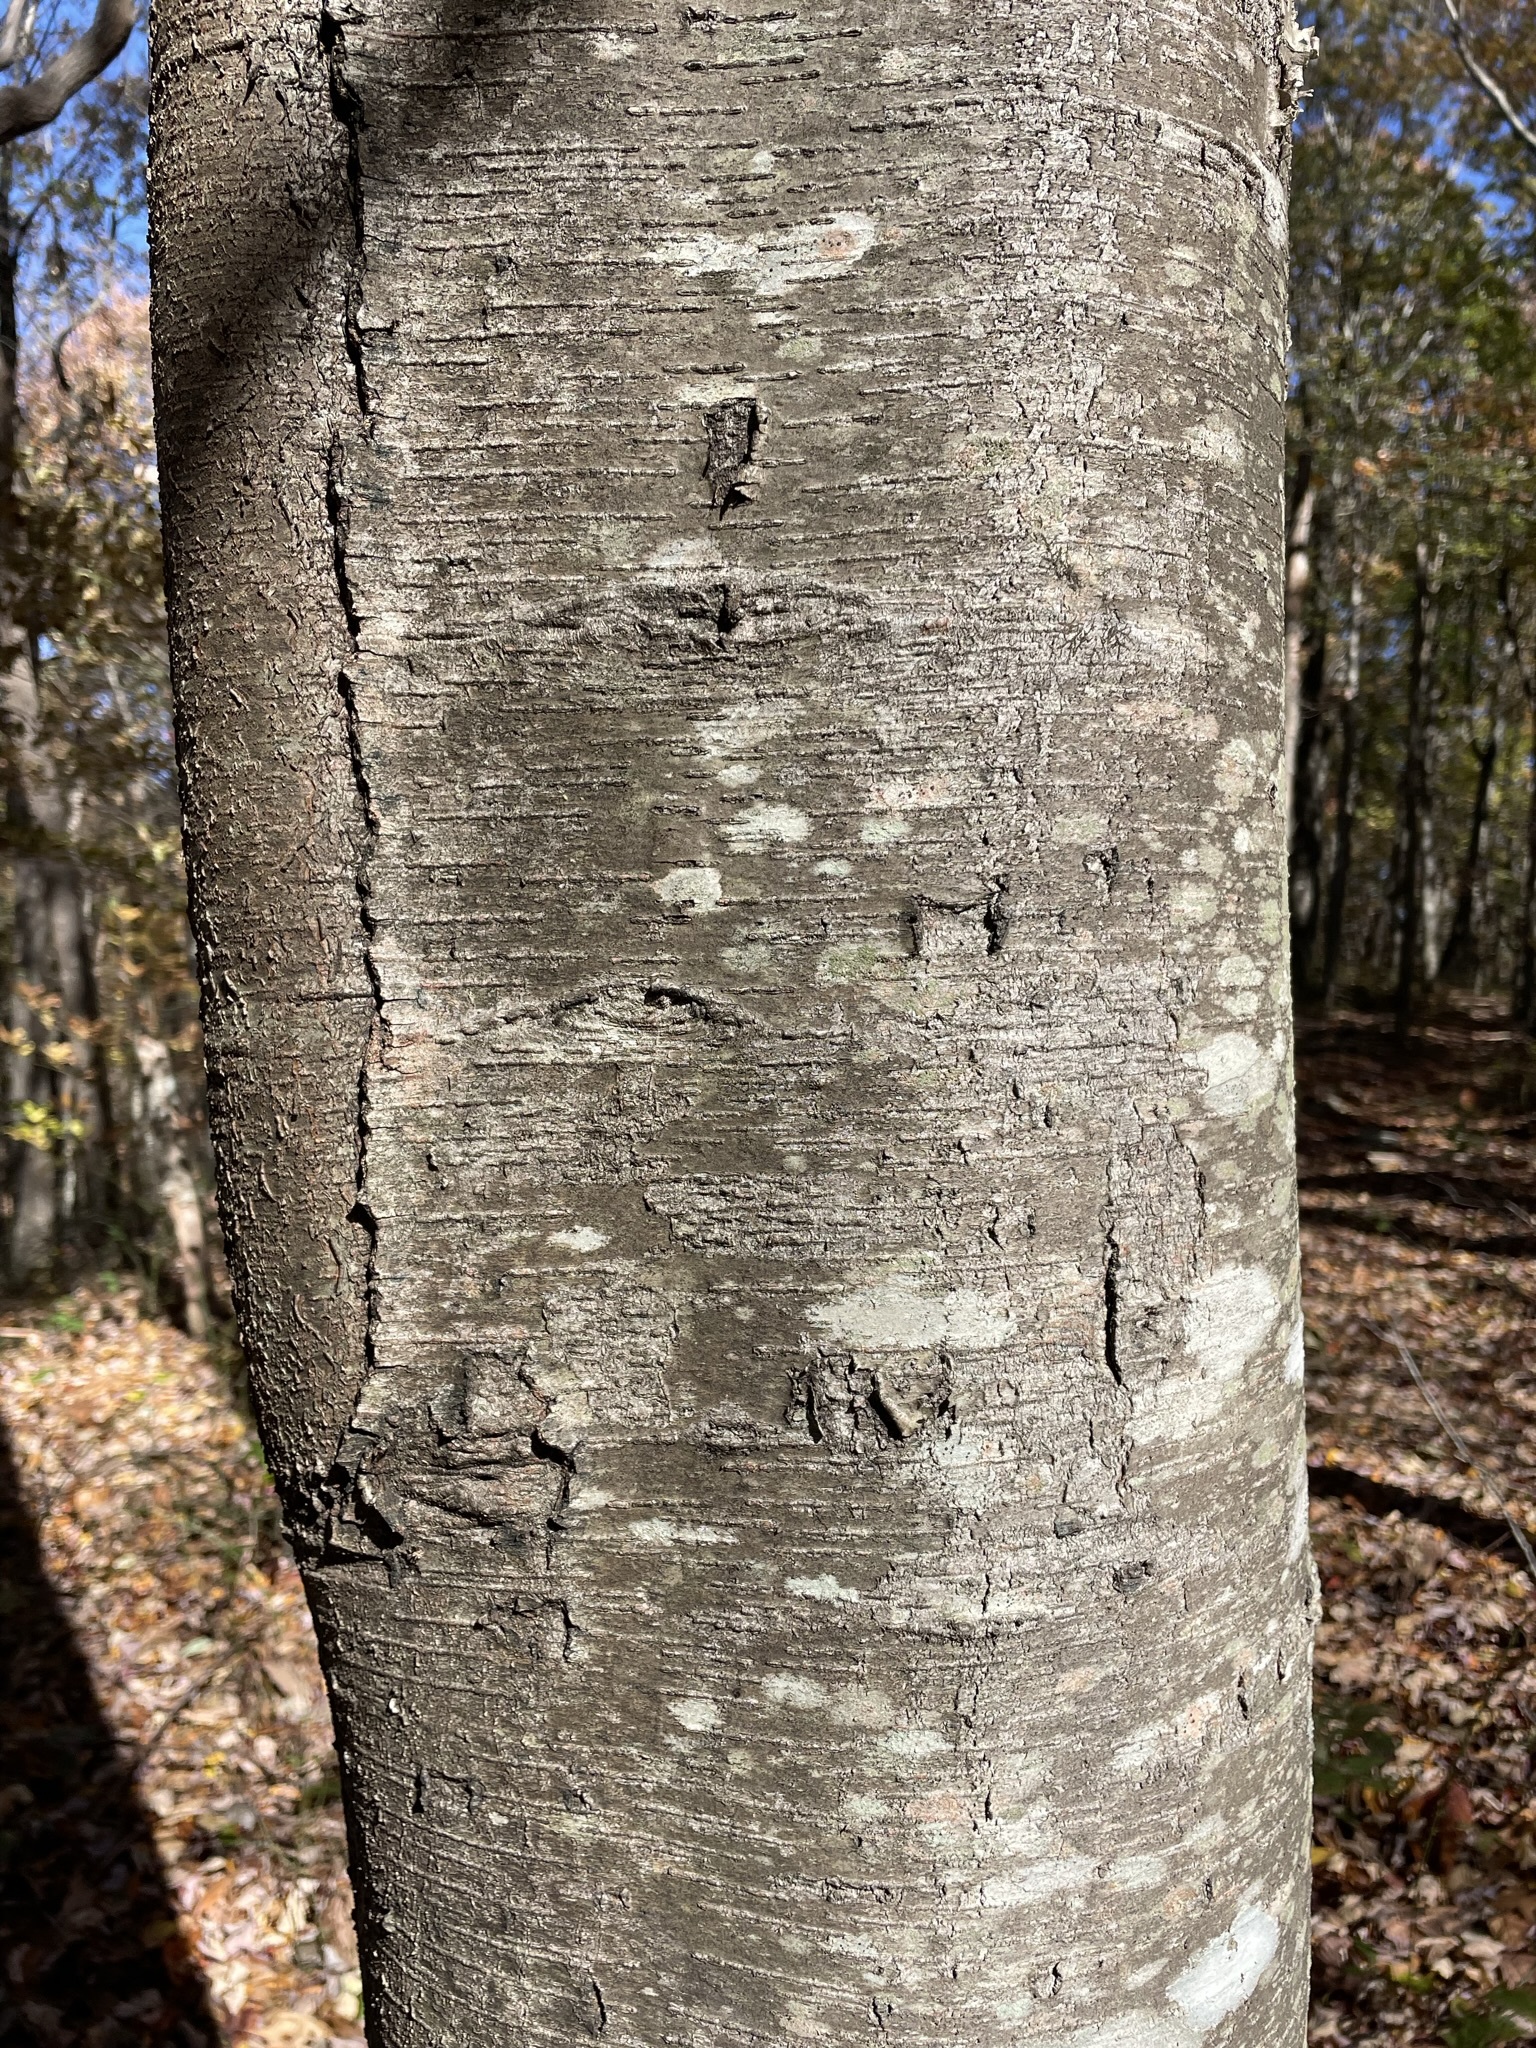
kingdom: Plantae
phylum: Tracheophyta
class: Magnoliopsida
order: Fagales
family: Betulaceae
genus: Betula
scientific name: Betula lenta
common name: Black birch
